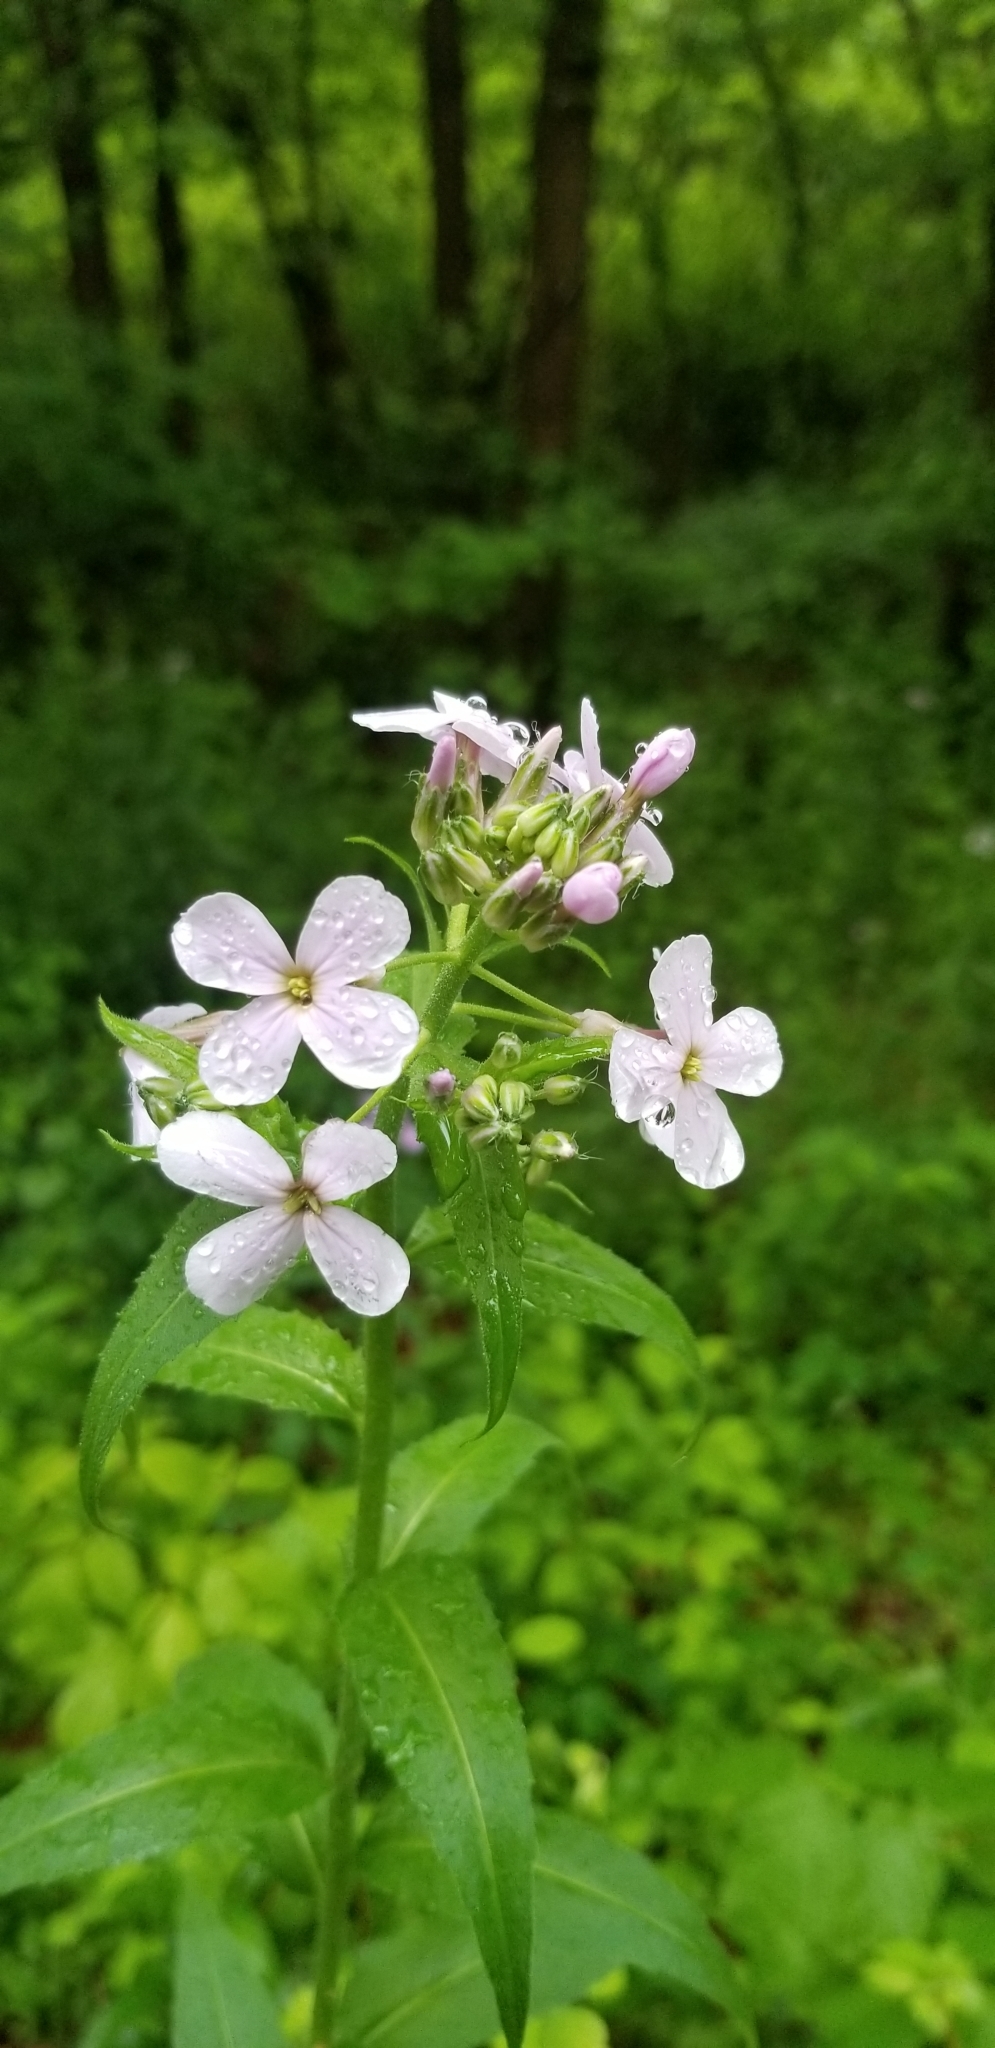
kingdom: Plantae
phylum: Tracheophyta
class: Magnoliopsida
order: Brassicales
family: Brassicaceae
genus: Hesperis
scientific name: Hesperis matronalis
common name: Dame's-violet
